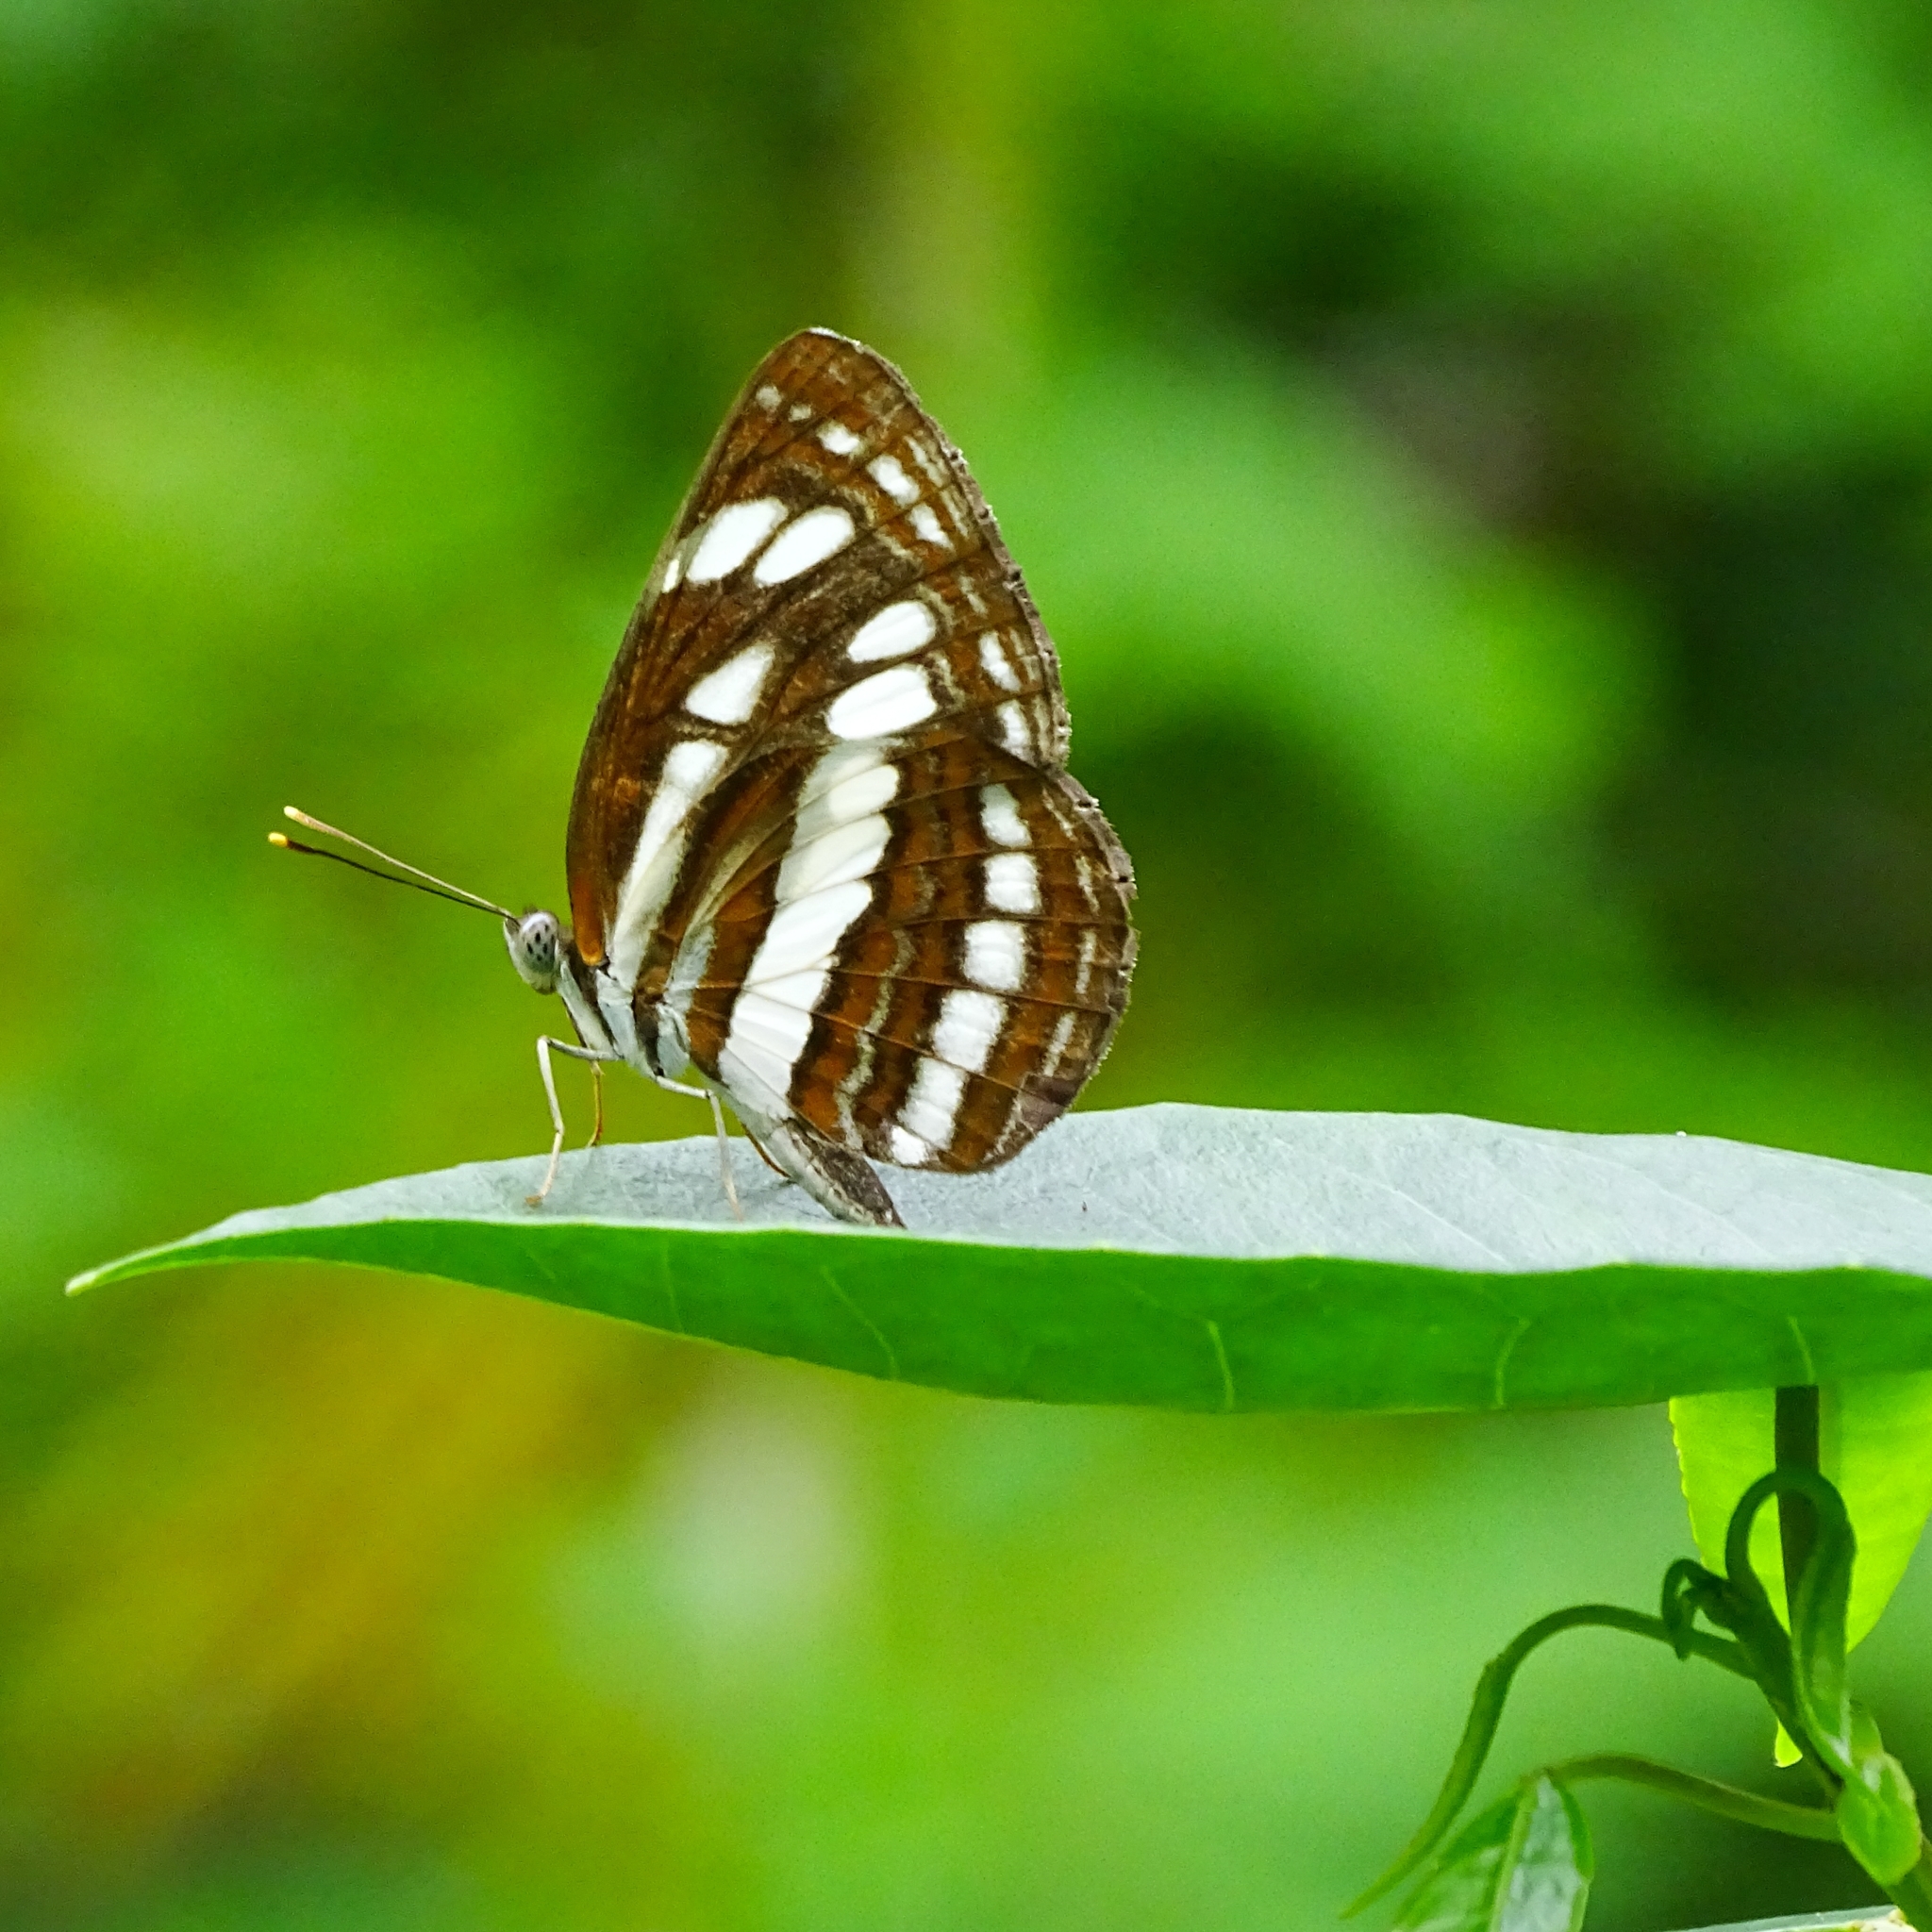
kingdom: Animalia
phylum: Arthropoda
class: Insecta
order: Lepidoptera
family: Nymphalidae
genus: Neptis
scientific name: Neptis hylas
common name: Common sailer
